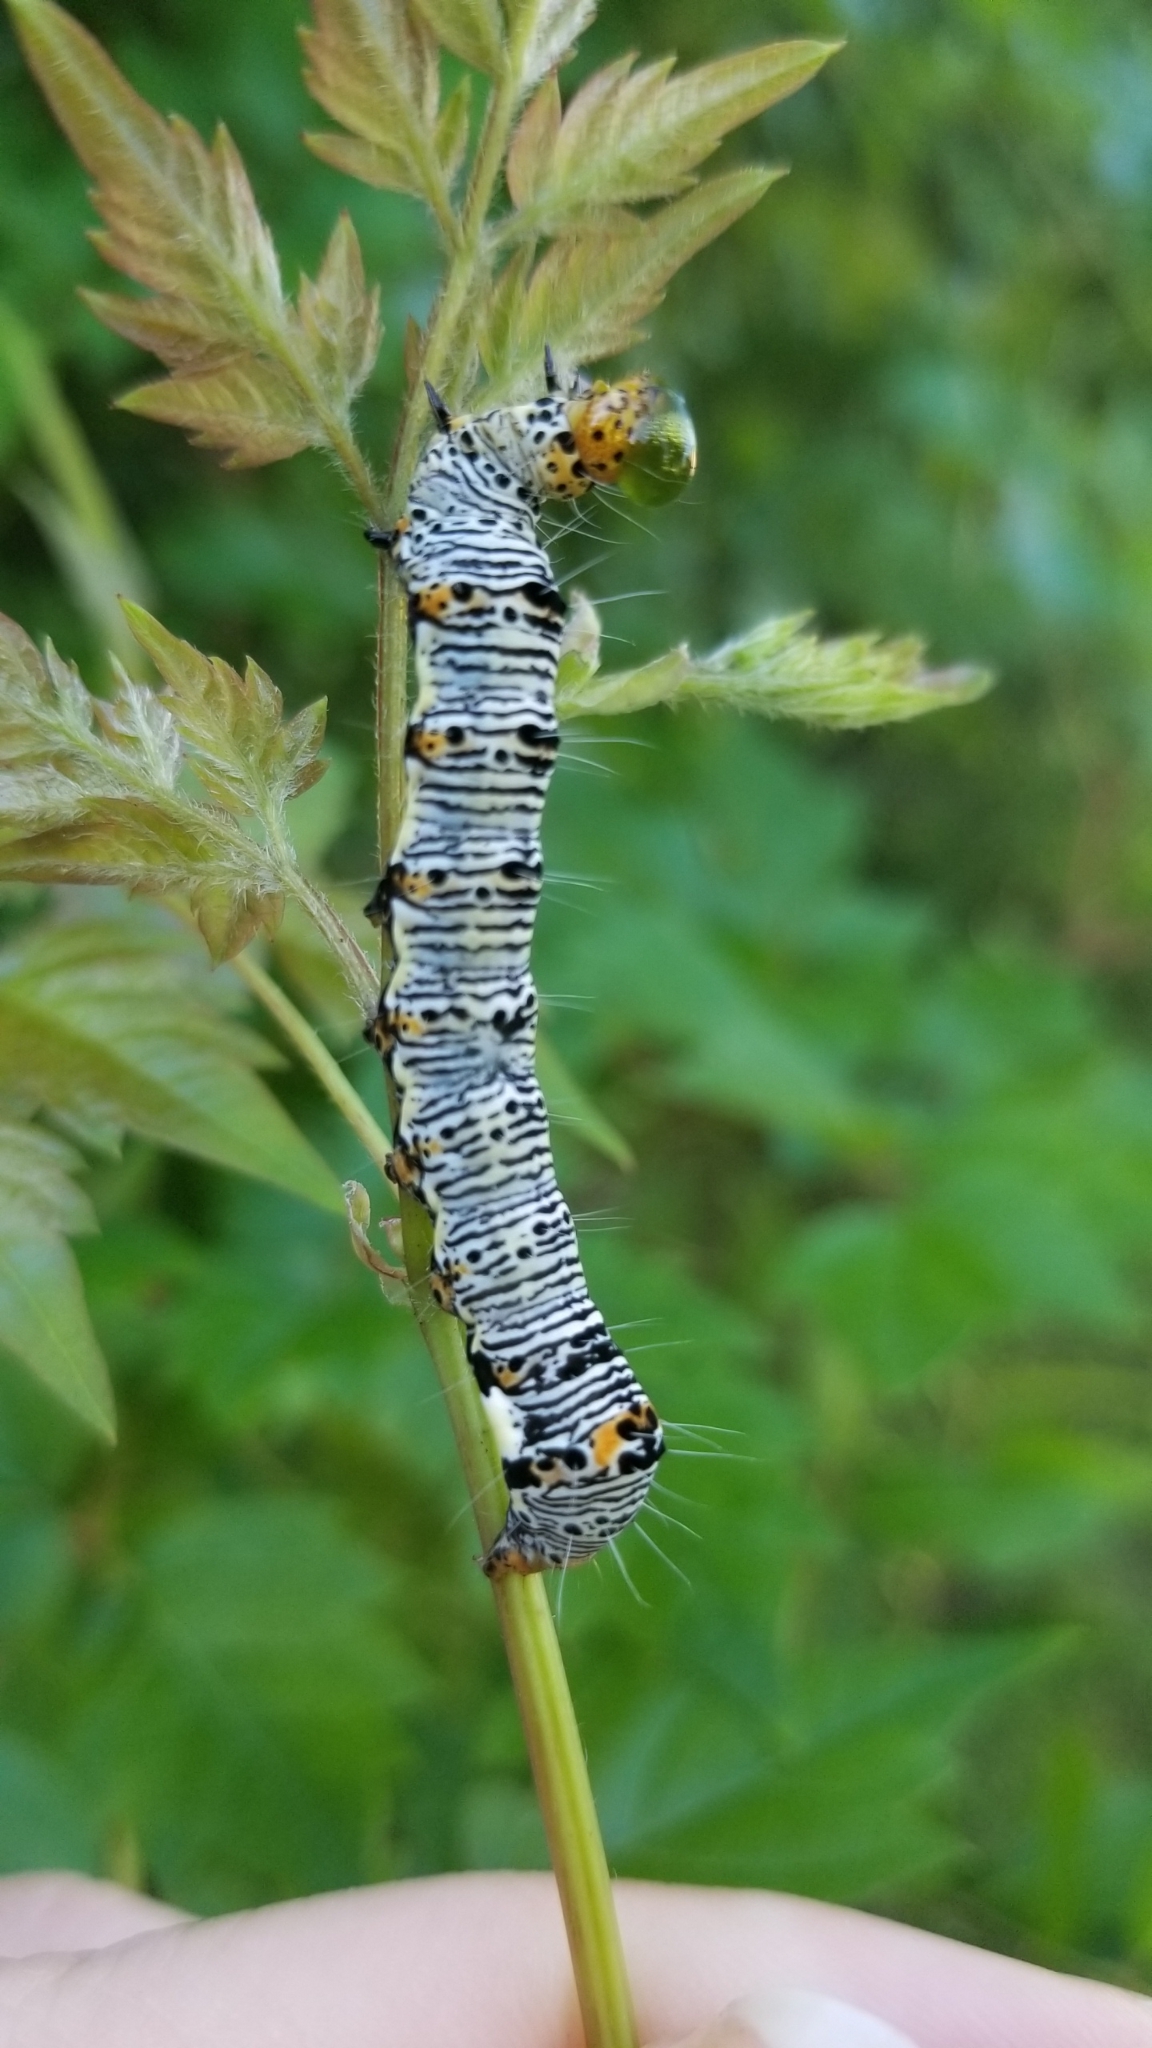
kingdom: Animalia
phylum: Arthropoda
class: Insecta
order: Lepidoptera
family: Noctuidae
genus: Alypia
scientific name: Alypia octomaculata
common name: Eight-spotted forester
